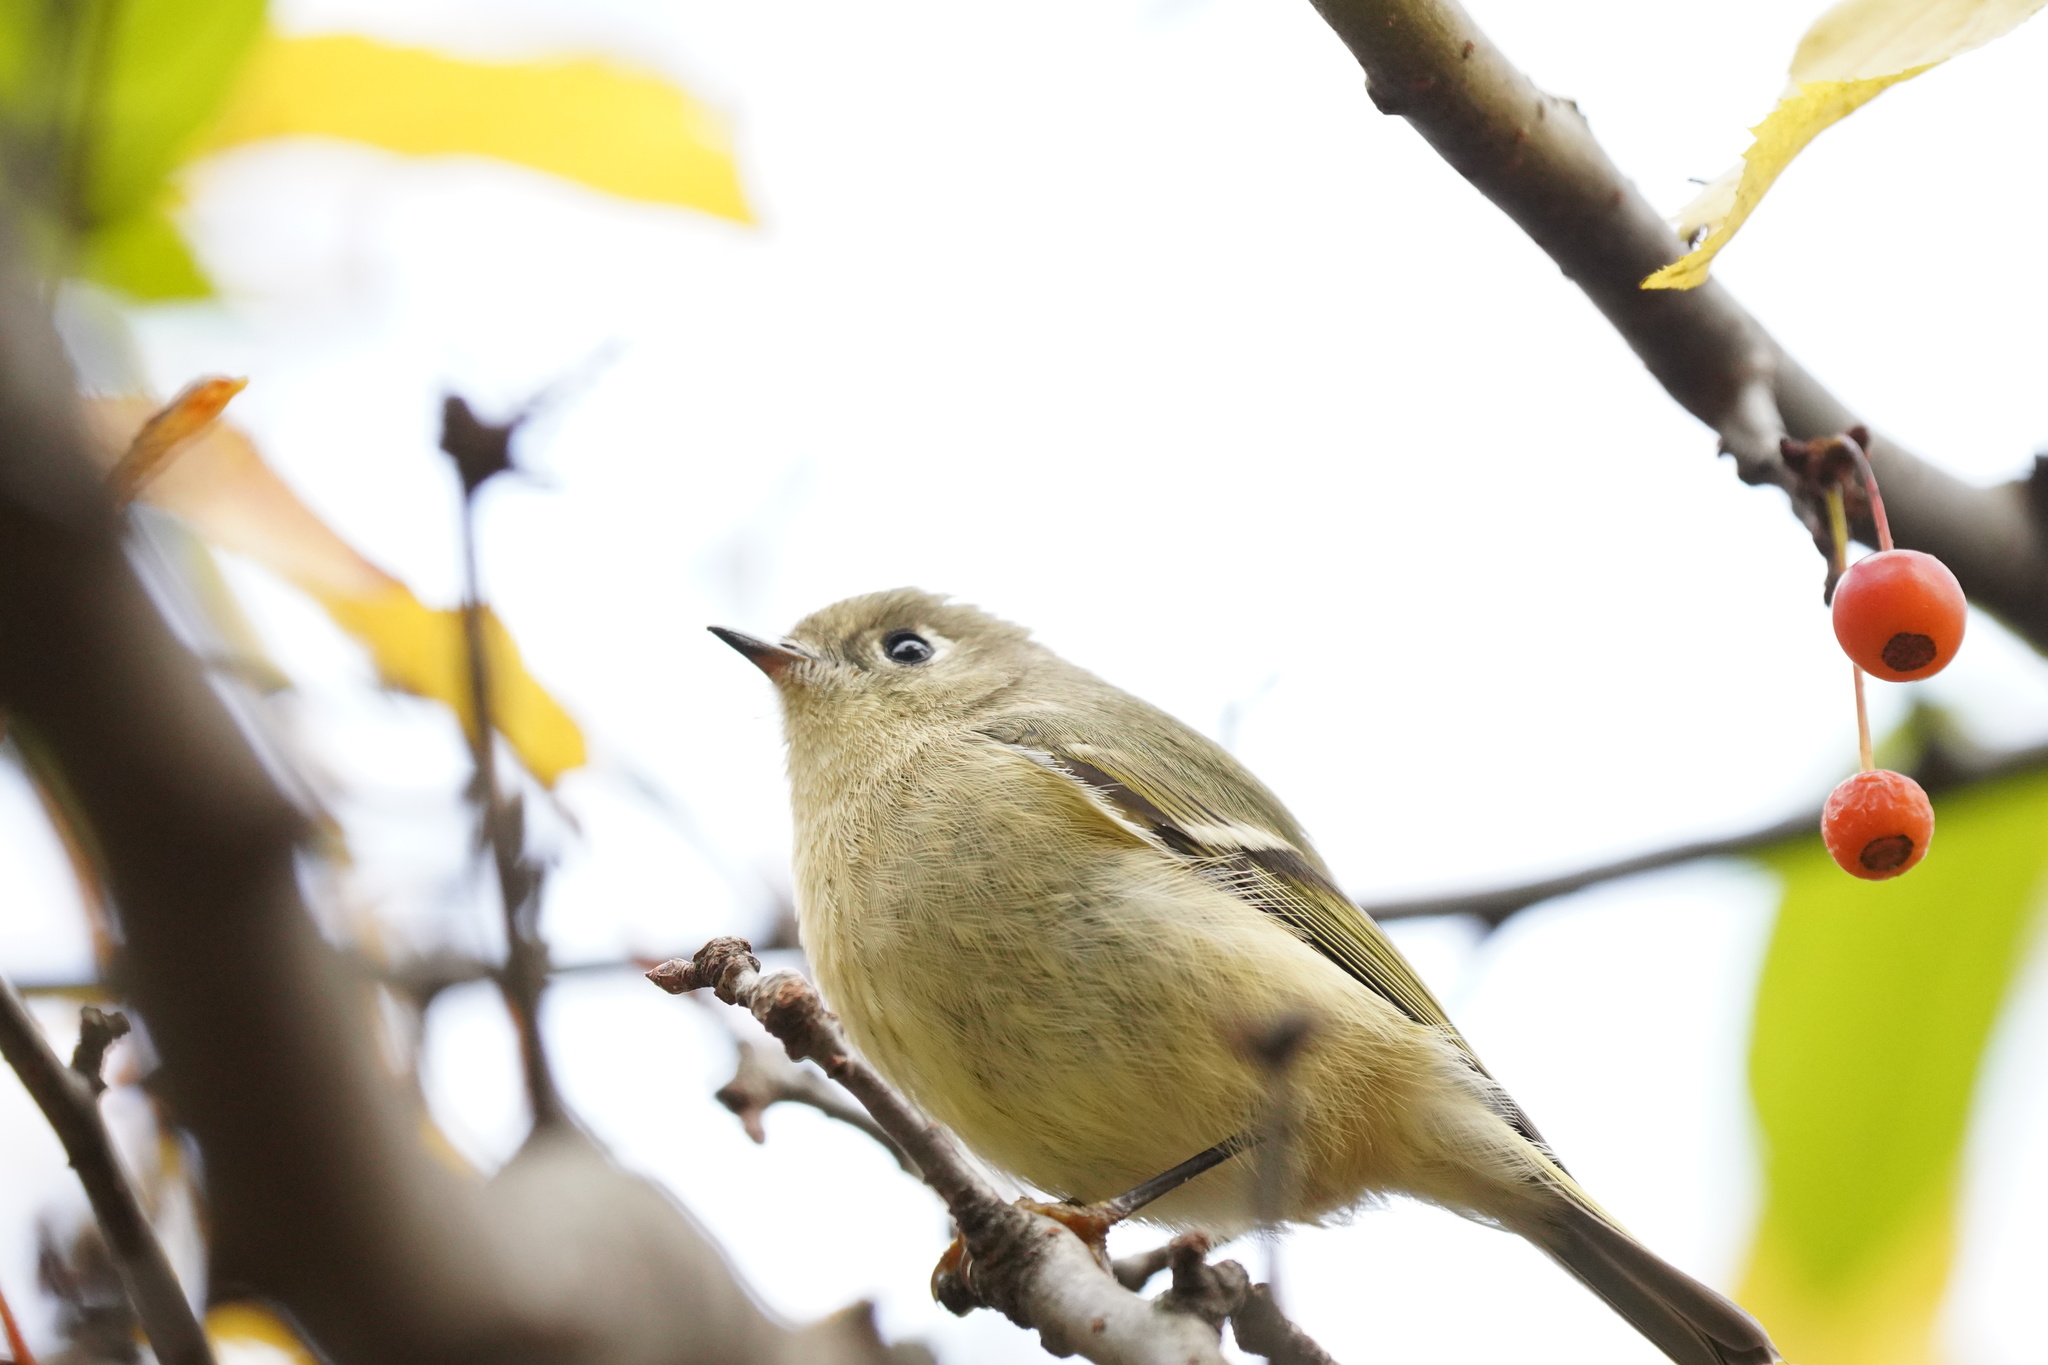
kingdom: Animalia
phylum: Chordata
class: Aves
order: Passeriformes
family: Regulidae
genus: Regulus
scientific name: Regulus calendula
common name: Ruby-crowned kinglet
